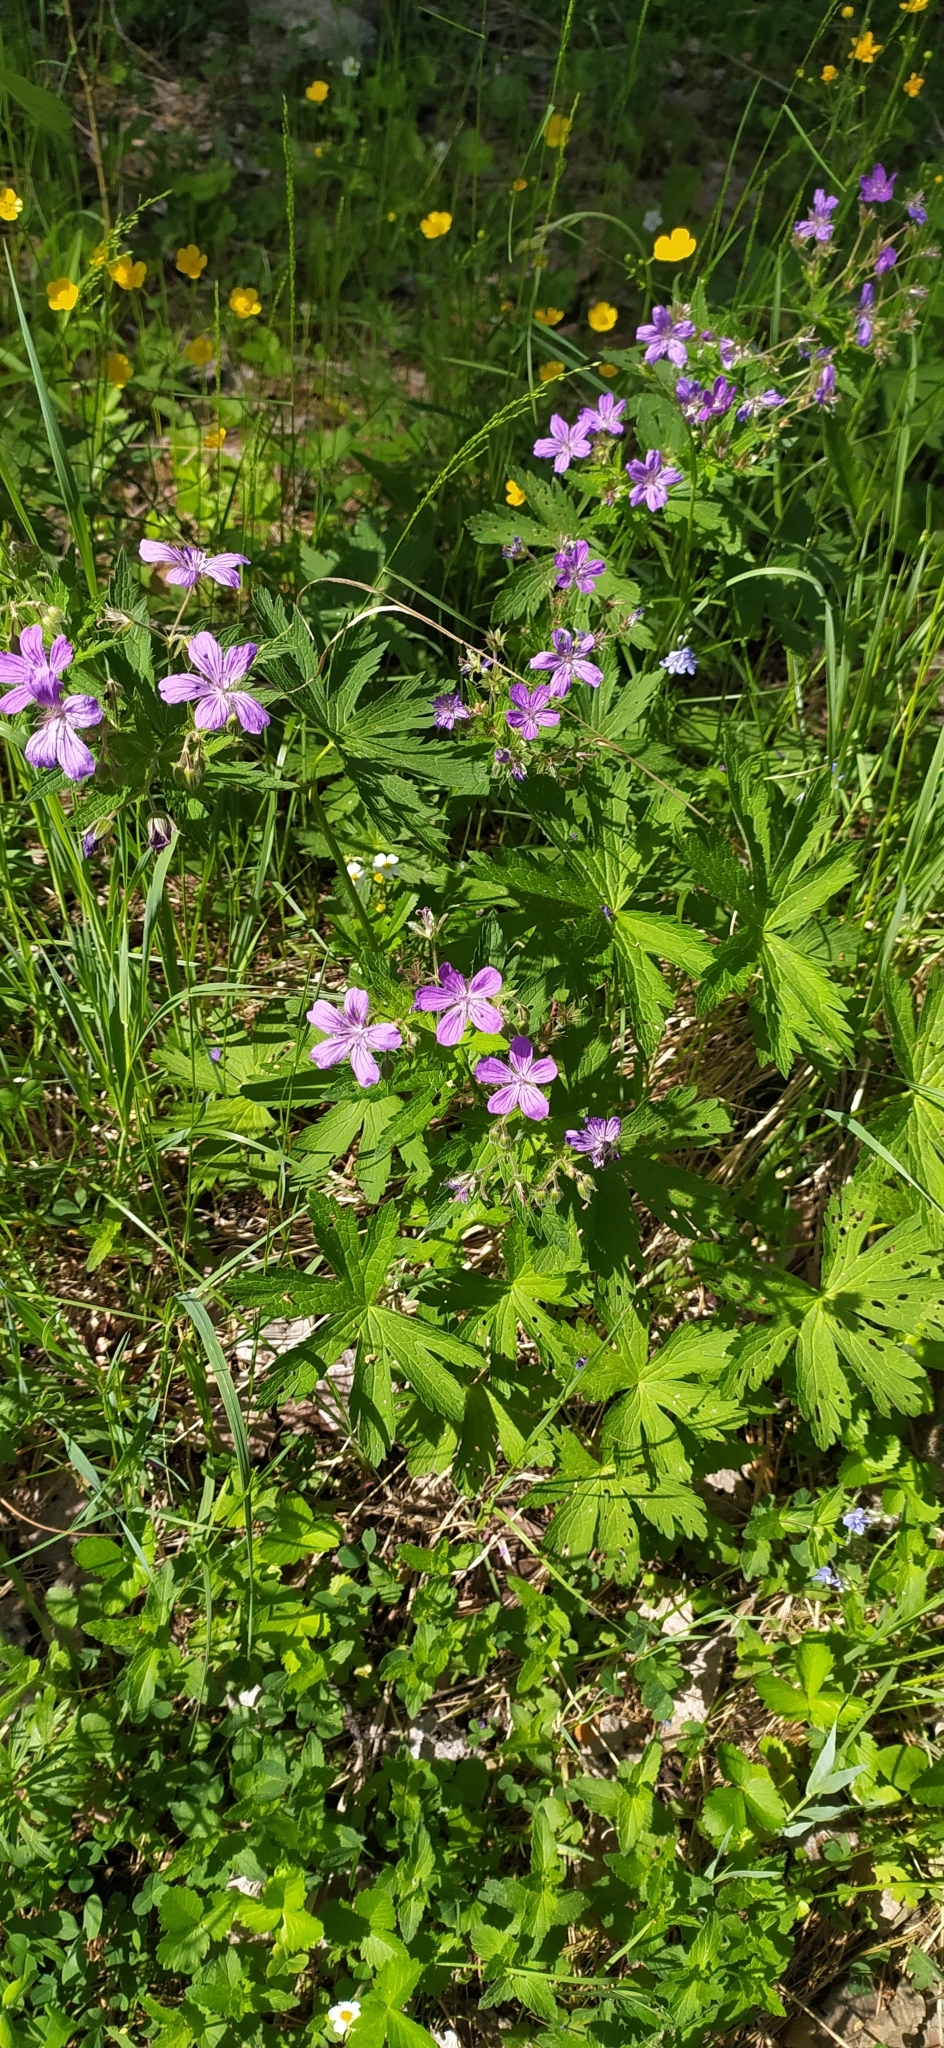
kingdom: Plantae
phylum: Tracheophyta
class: Magnoliopsida
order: Geraniales
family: Geraniaceae
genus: Geranium
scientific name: Geranium sylvaticum
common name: Wood crane's-bill
